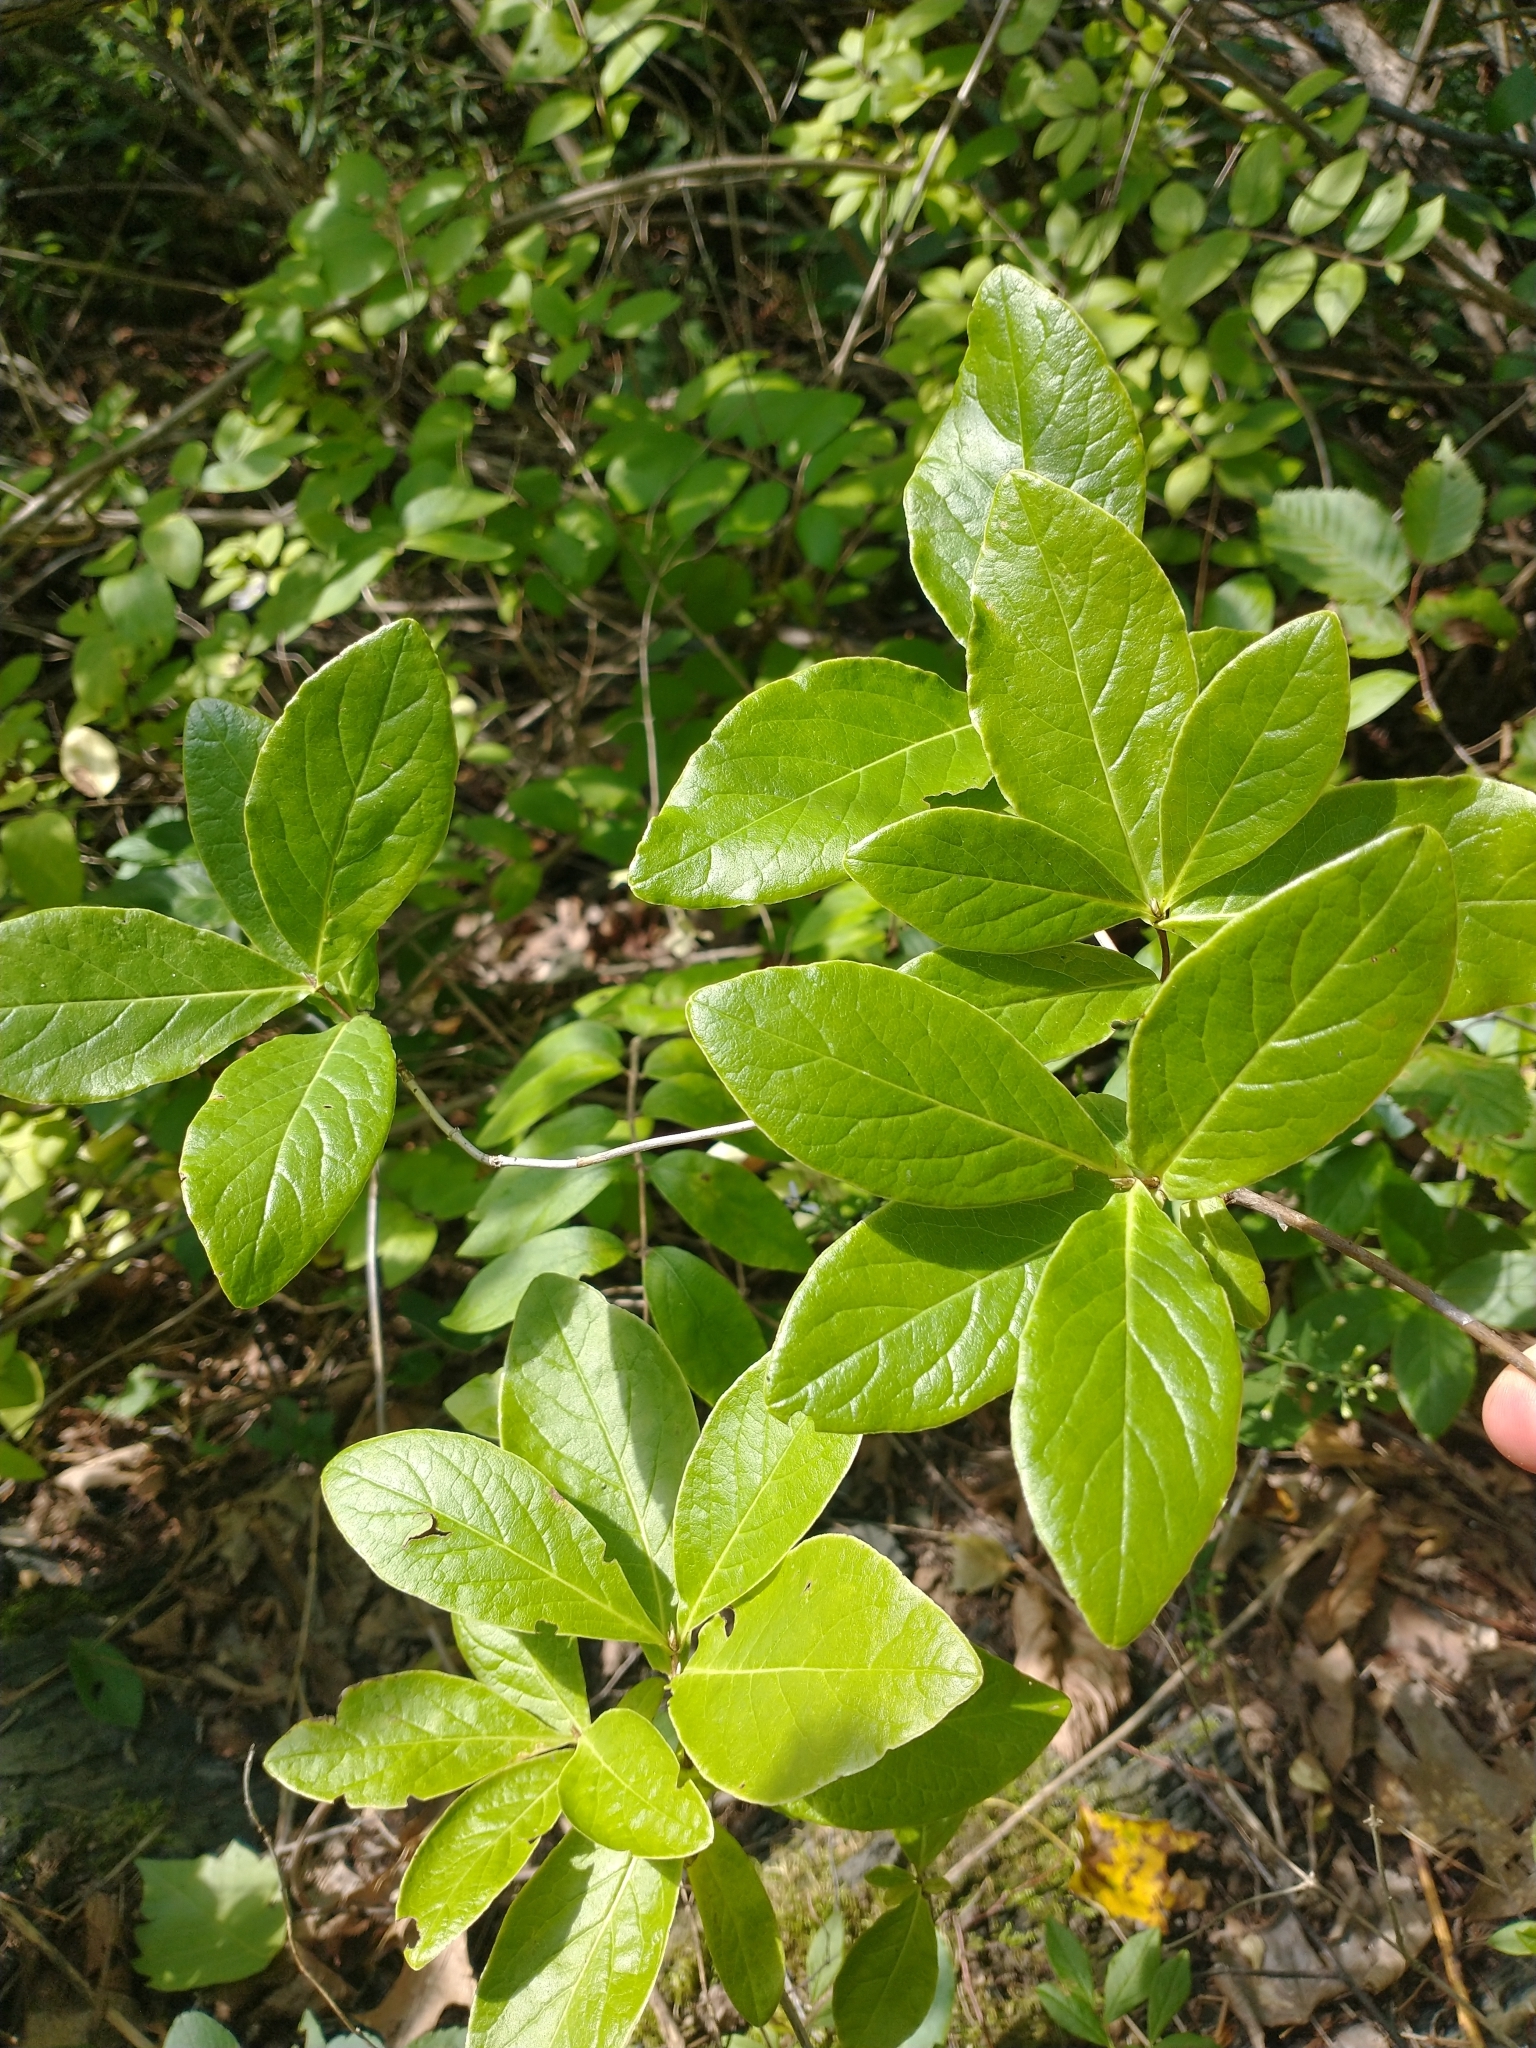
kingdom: Plantae
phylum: Tracheophyta
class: Magnoliopsida
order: Dipsacales
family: Caprifoliaceae
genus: Lonicera
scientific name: Lonicera dioica
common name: Limber honeysuckle
